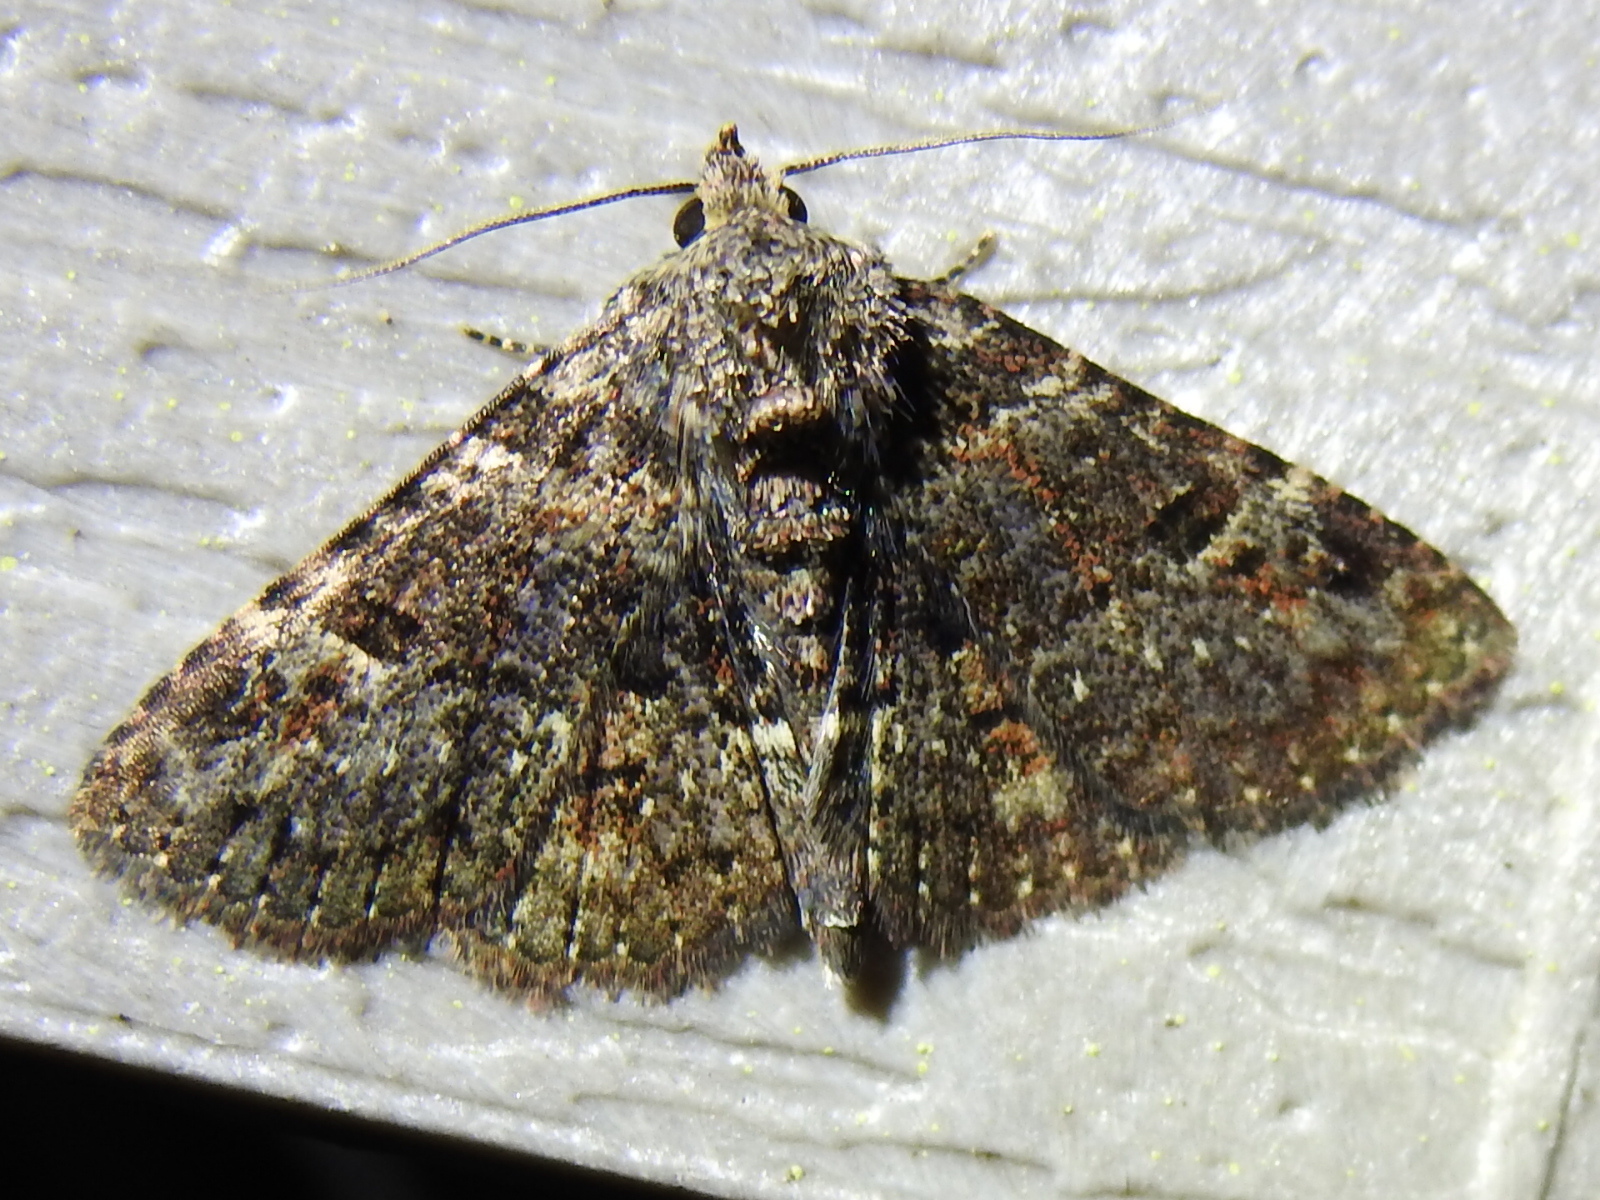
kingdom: Animalia
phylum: Arthropoda
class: Insecta
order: Lepidoptera
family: Erebidae
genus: Metalectra
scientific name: Metalectra discalis
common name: Common fungus moth
